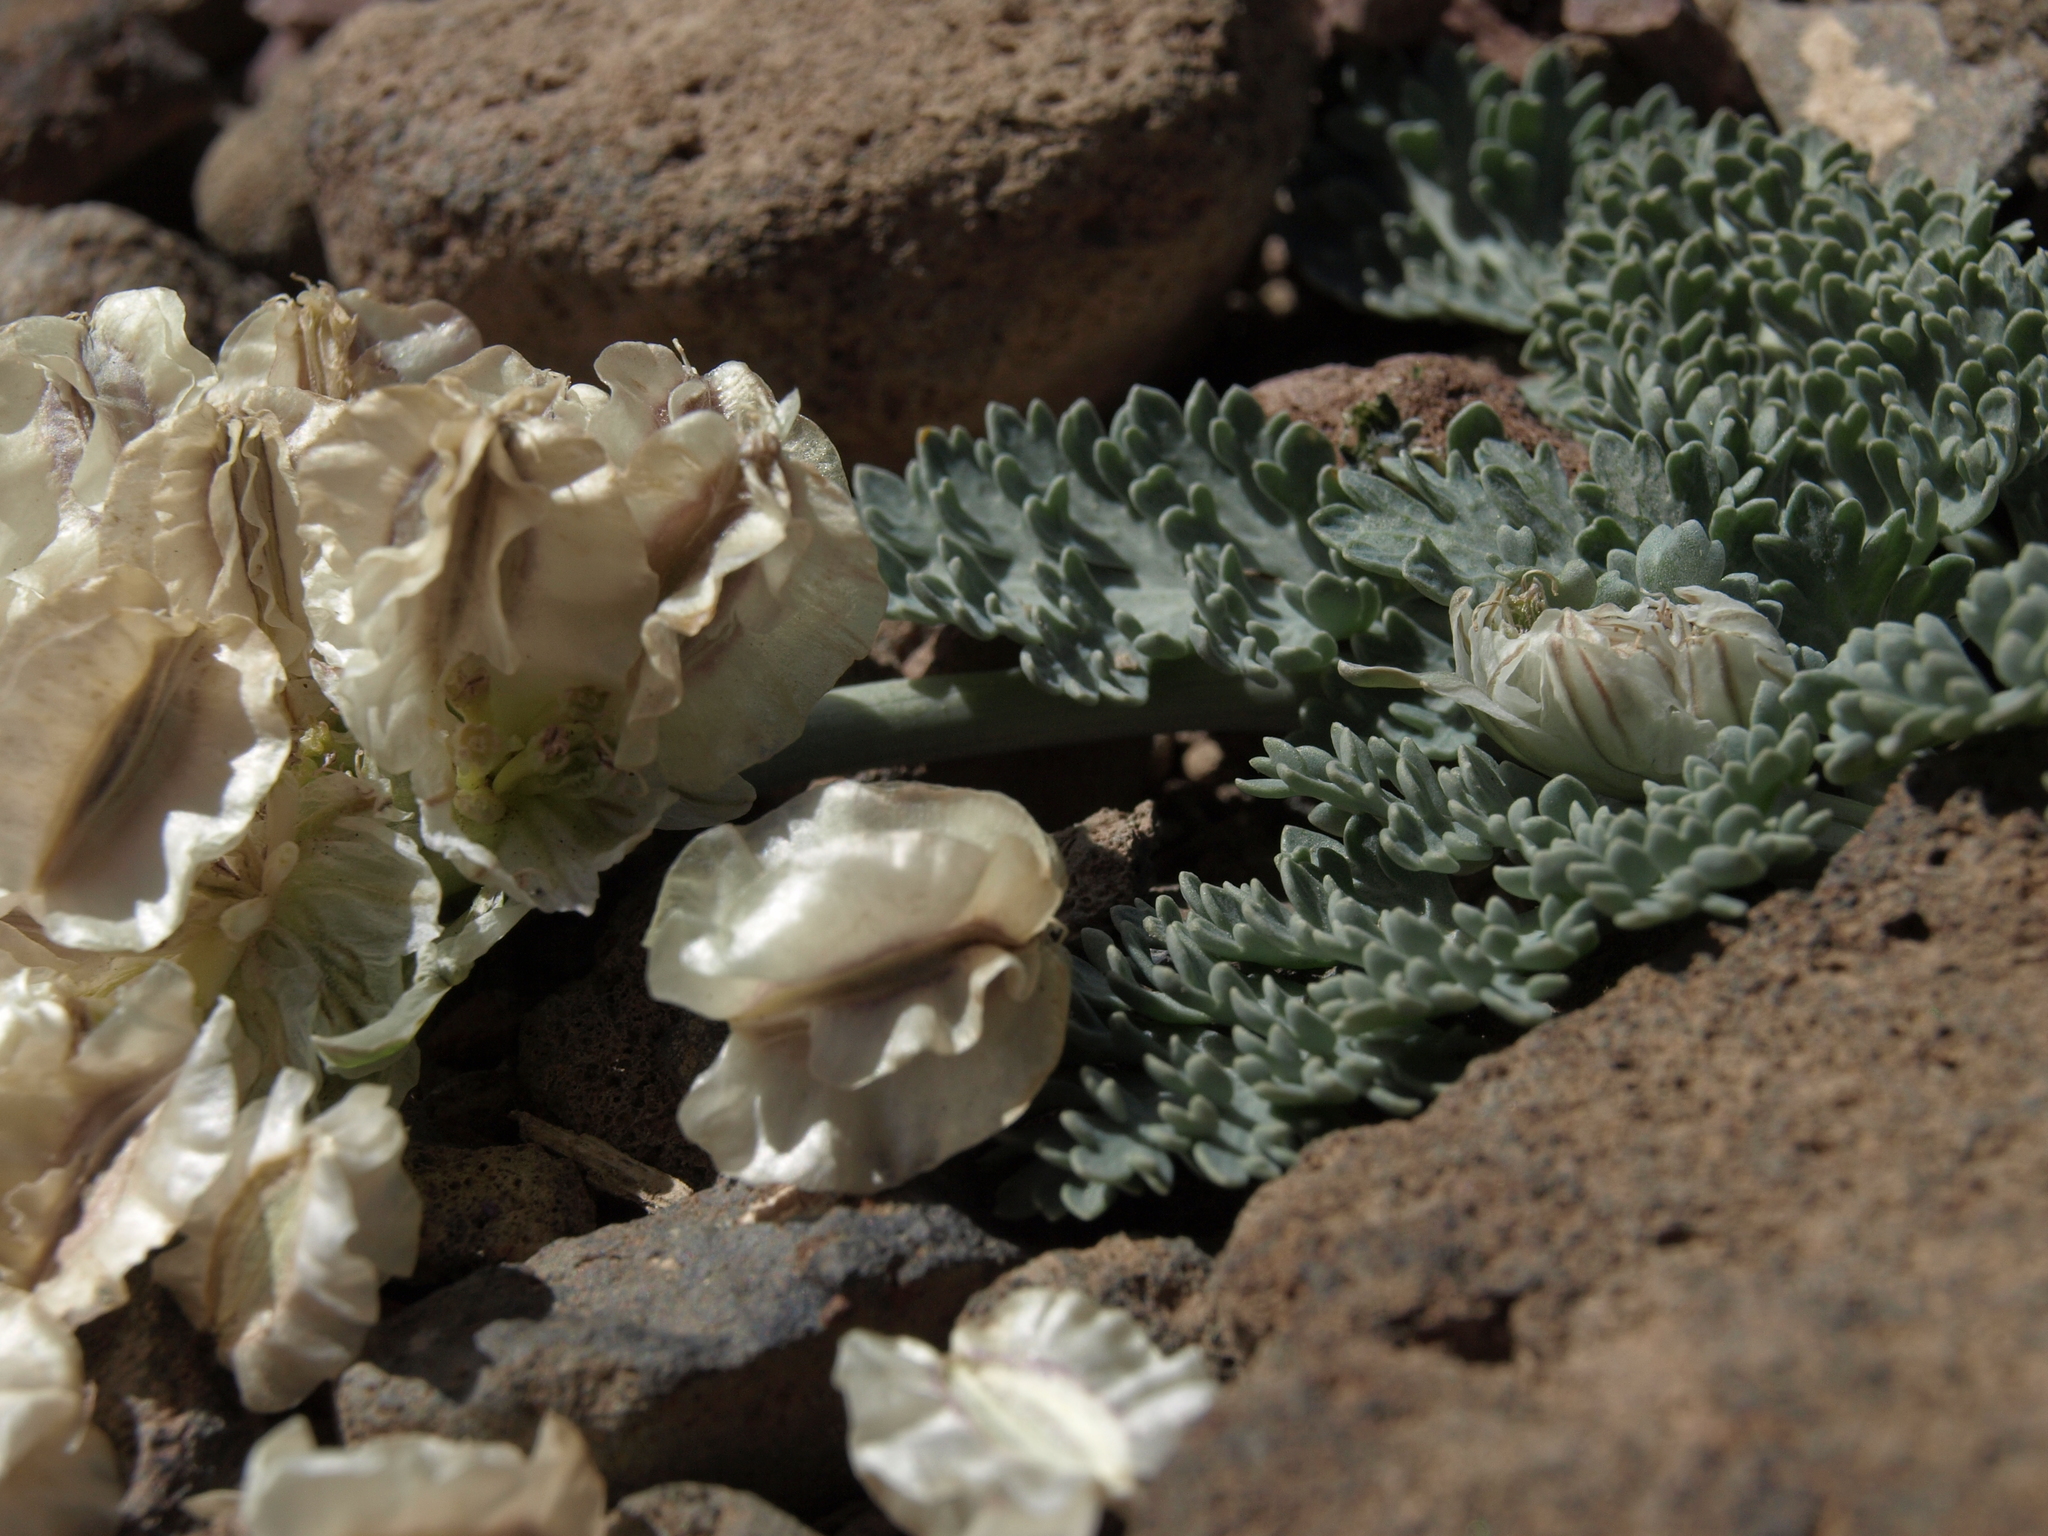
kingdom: Plantae
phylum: Tracheophyta
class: Magnoliopsida
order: Apiales
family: Apiaceae
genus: Vesper
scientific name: Vesper purpurascens
